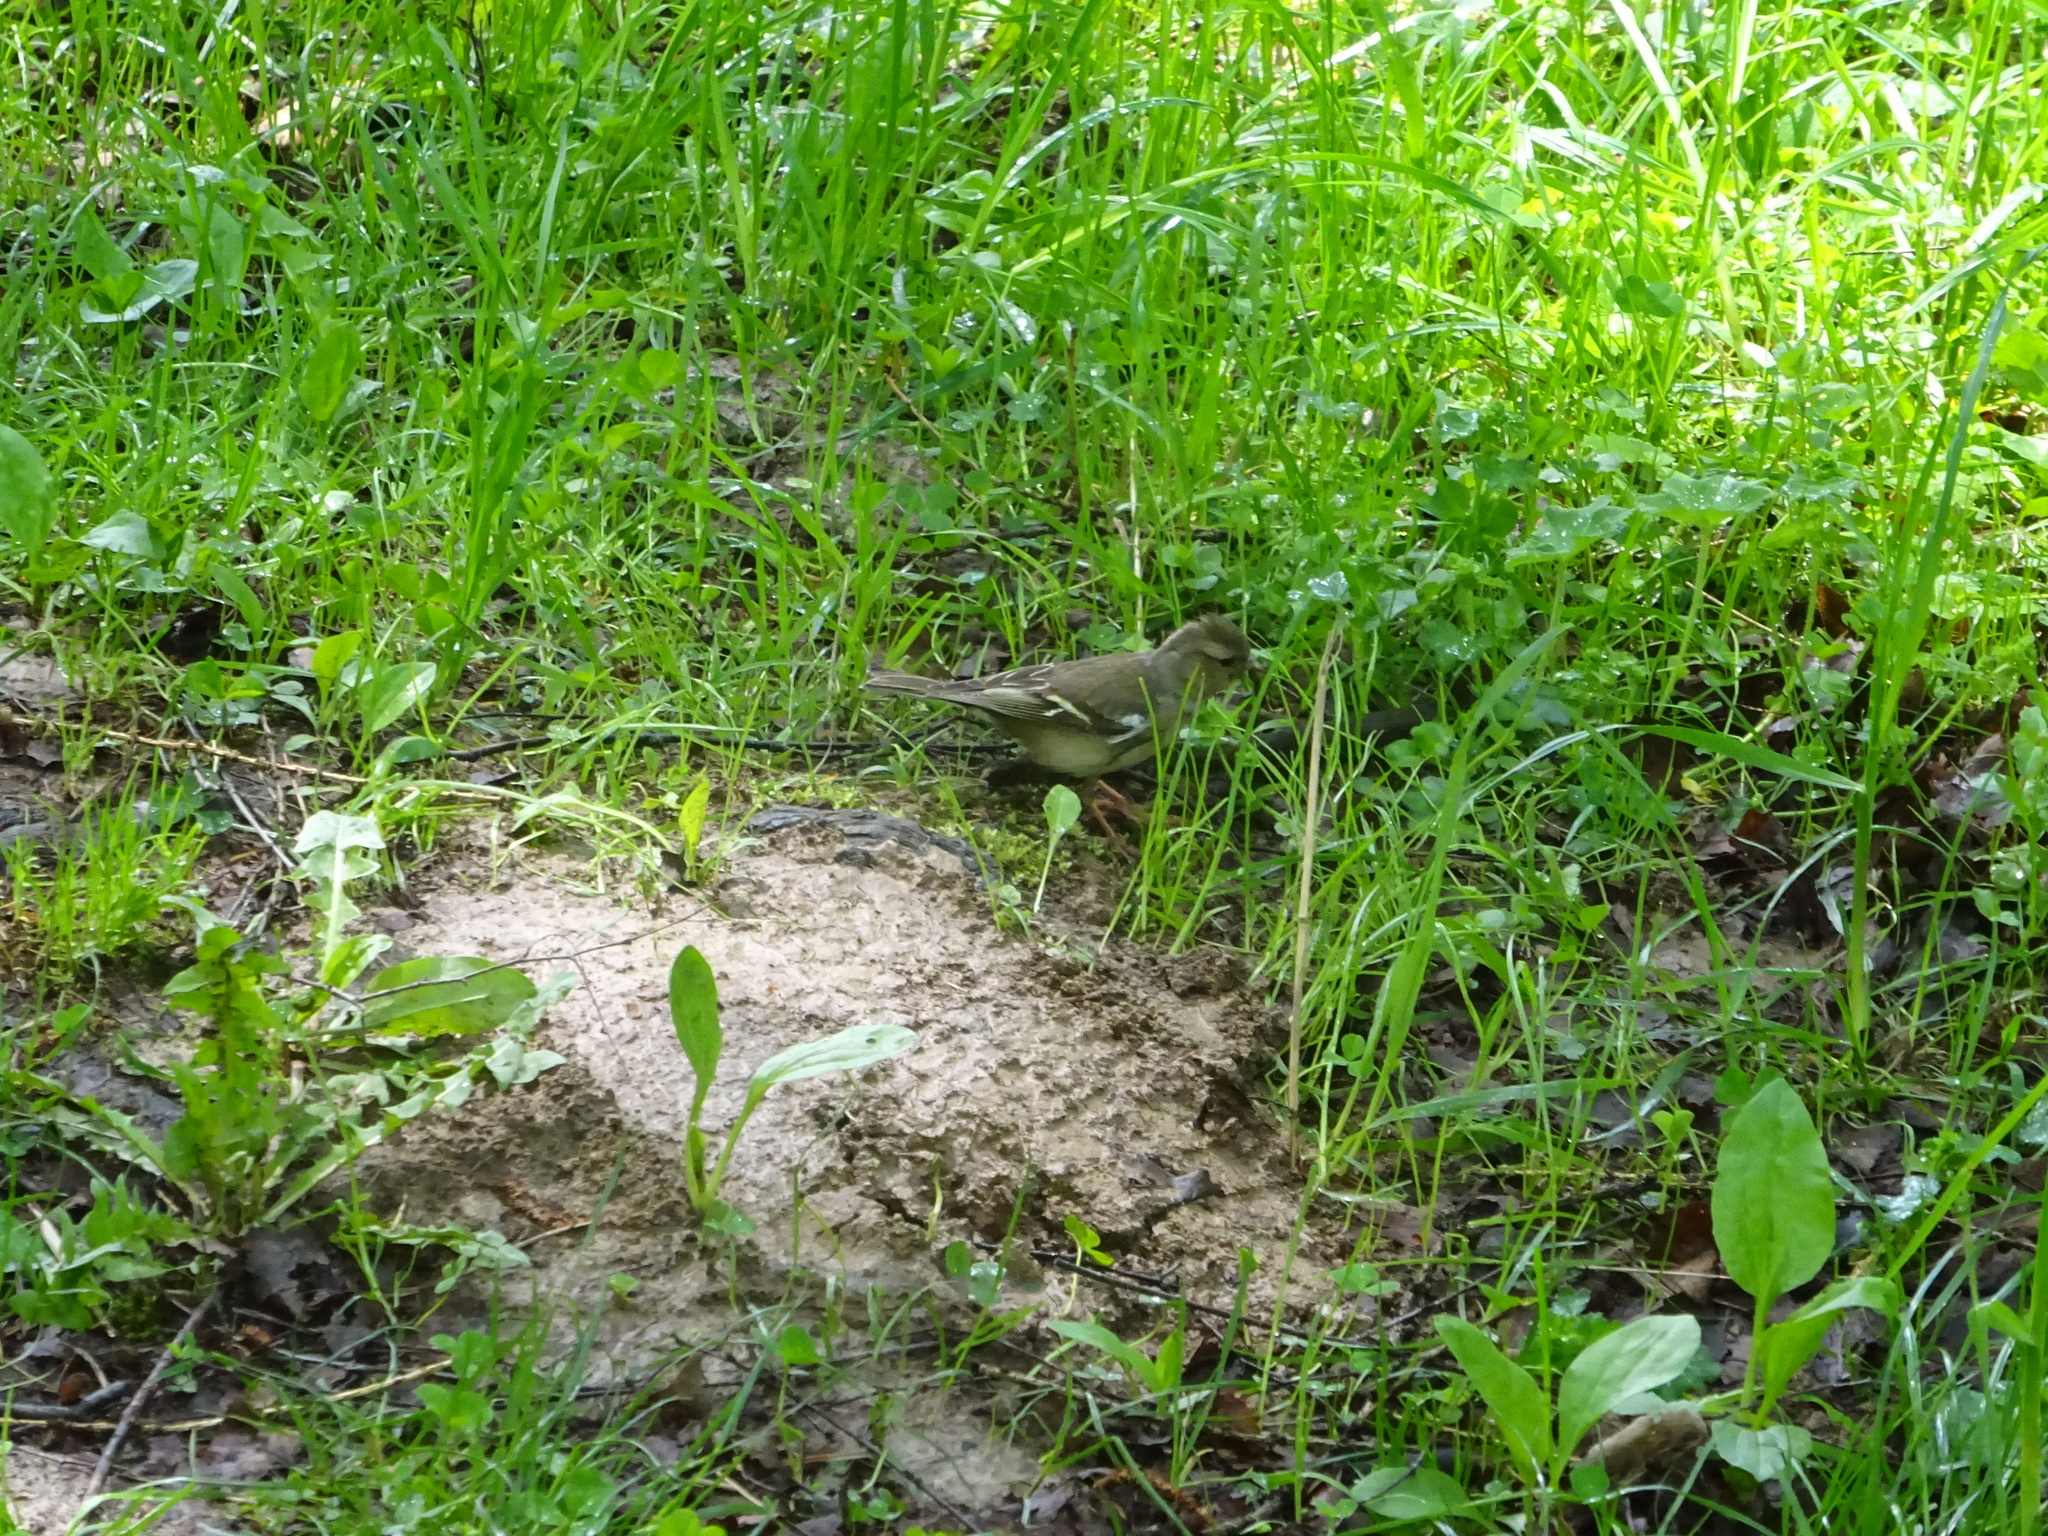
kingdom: Animalia
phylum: Chordata
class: Aves
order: Passeriformes
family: Fringillidae
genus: Fringilla
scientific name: Fringilla coelebs
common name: Common chaffinch
